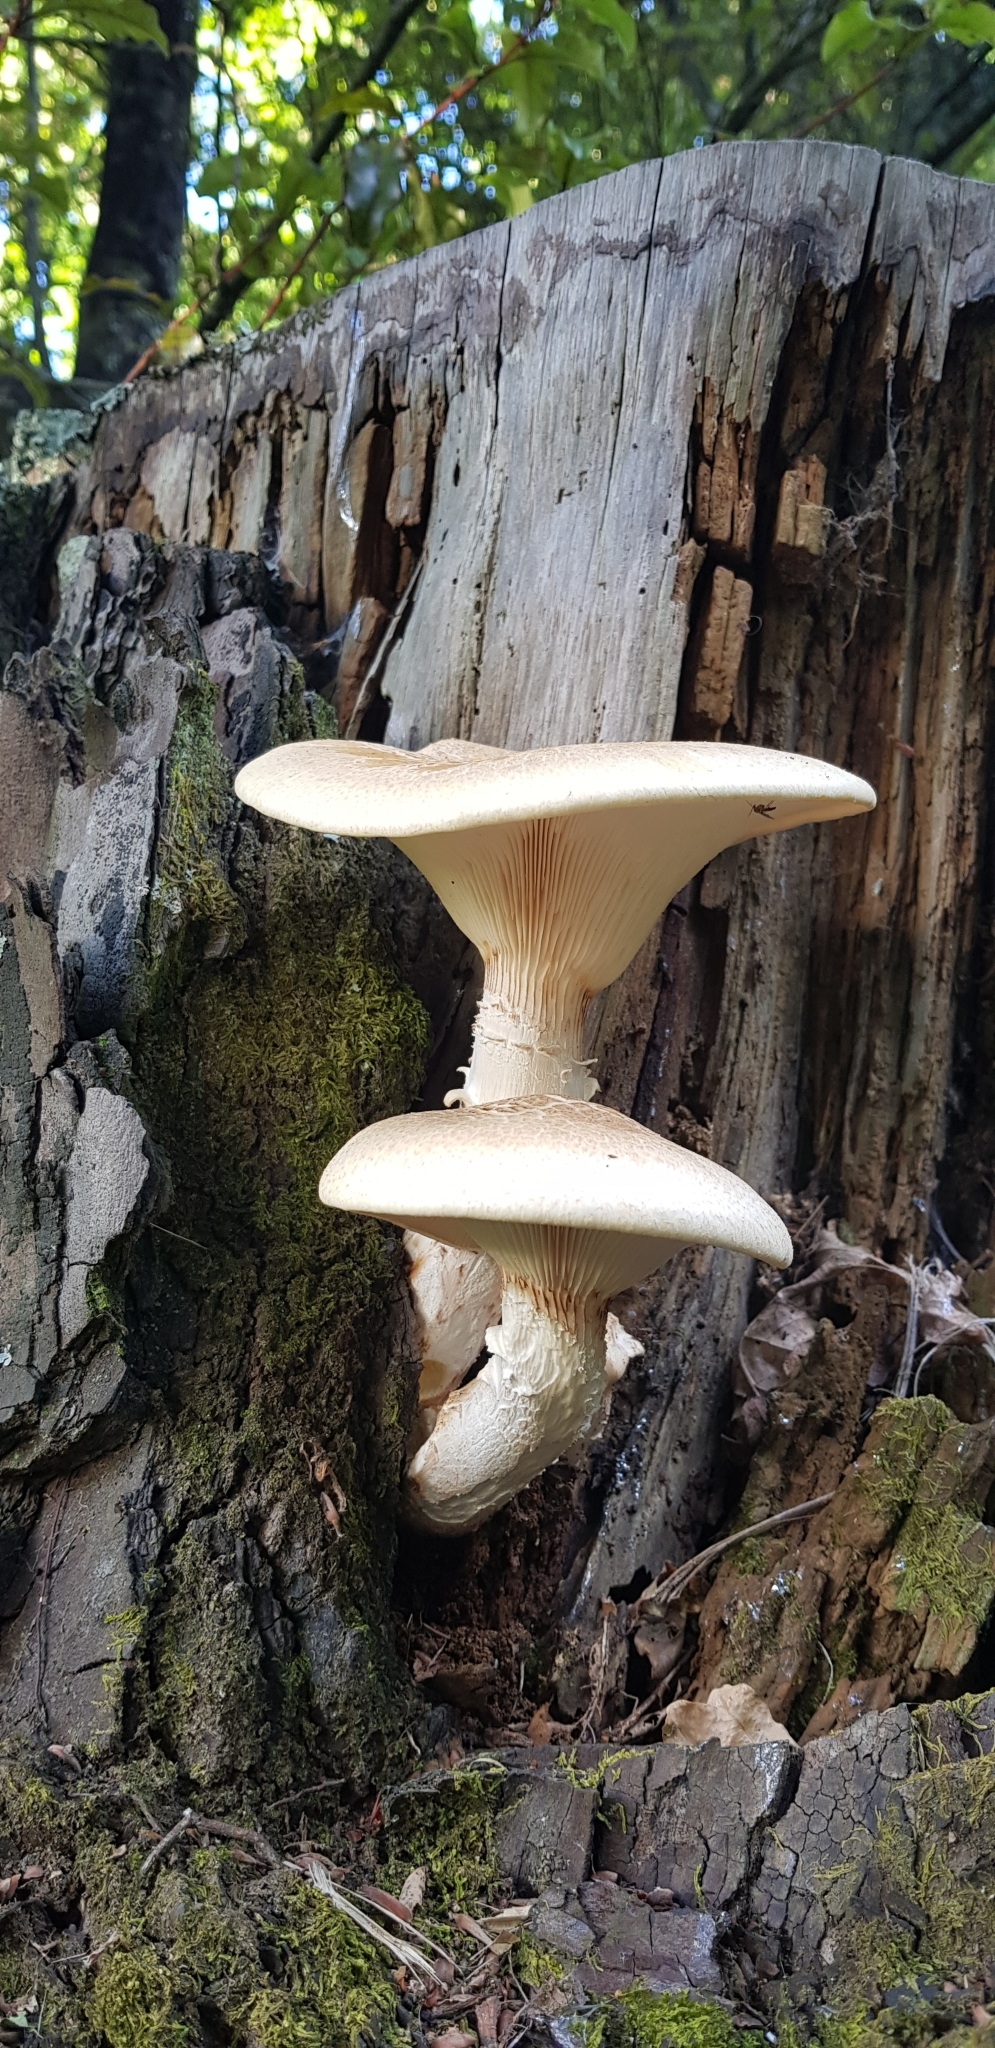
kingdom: Fungi
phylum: Basidiomycota
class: Agaricomycetes
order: Gloeophyllales
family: Gloeophyllaceae
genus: Neolentinus
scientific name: Neolentinus lepideus
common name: Scaly sawgill
